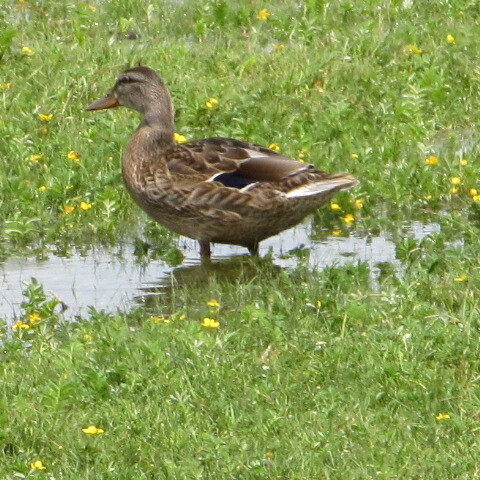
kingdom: Animalia
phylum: Chordata
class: Aves
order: Anseriformes
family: Anatidae
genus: Anas
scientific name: Anas platyrhynchos
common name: Mallard
